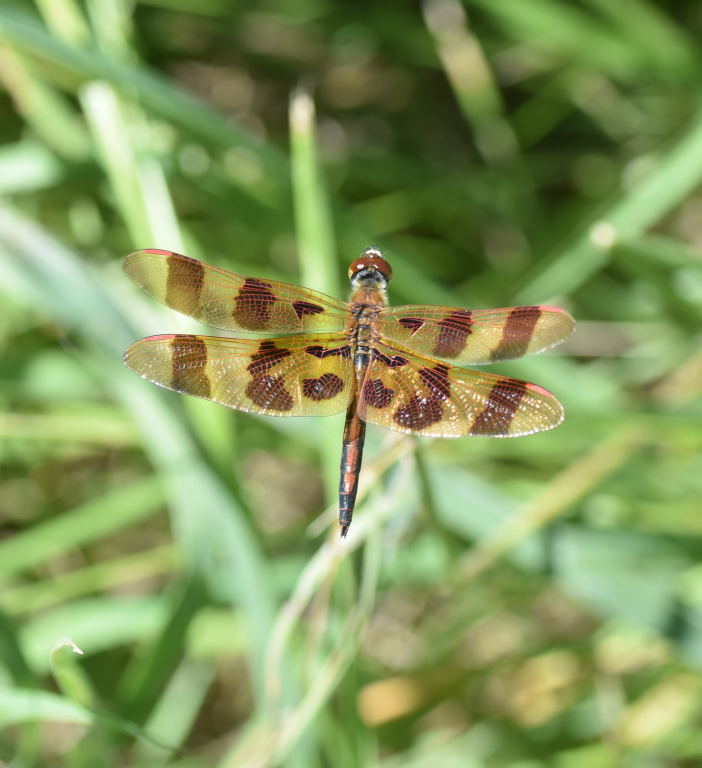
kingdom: Animalia
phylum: Arthropoda
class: Insecta
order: Odonata
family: Libellulidae
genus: Celithemis
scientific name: Celithemis eponina
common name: Halloween pennant
